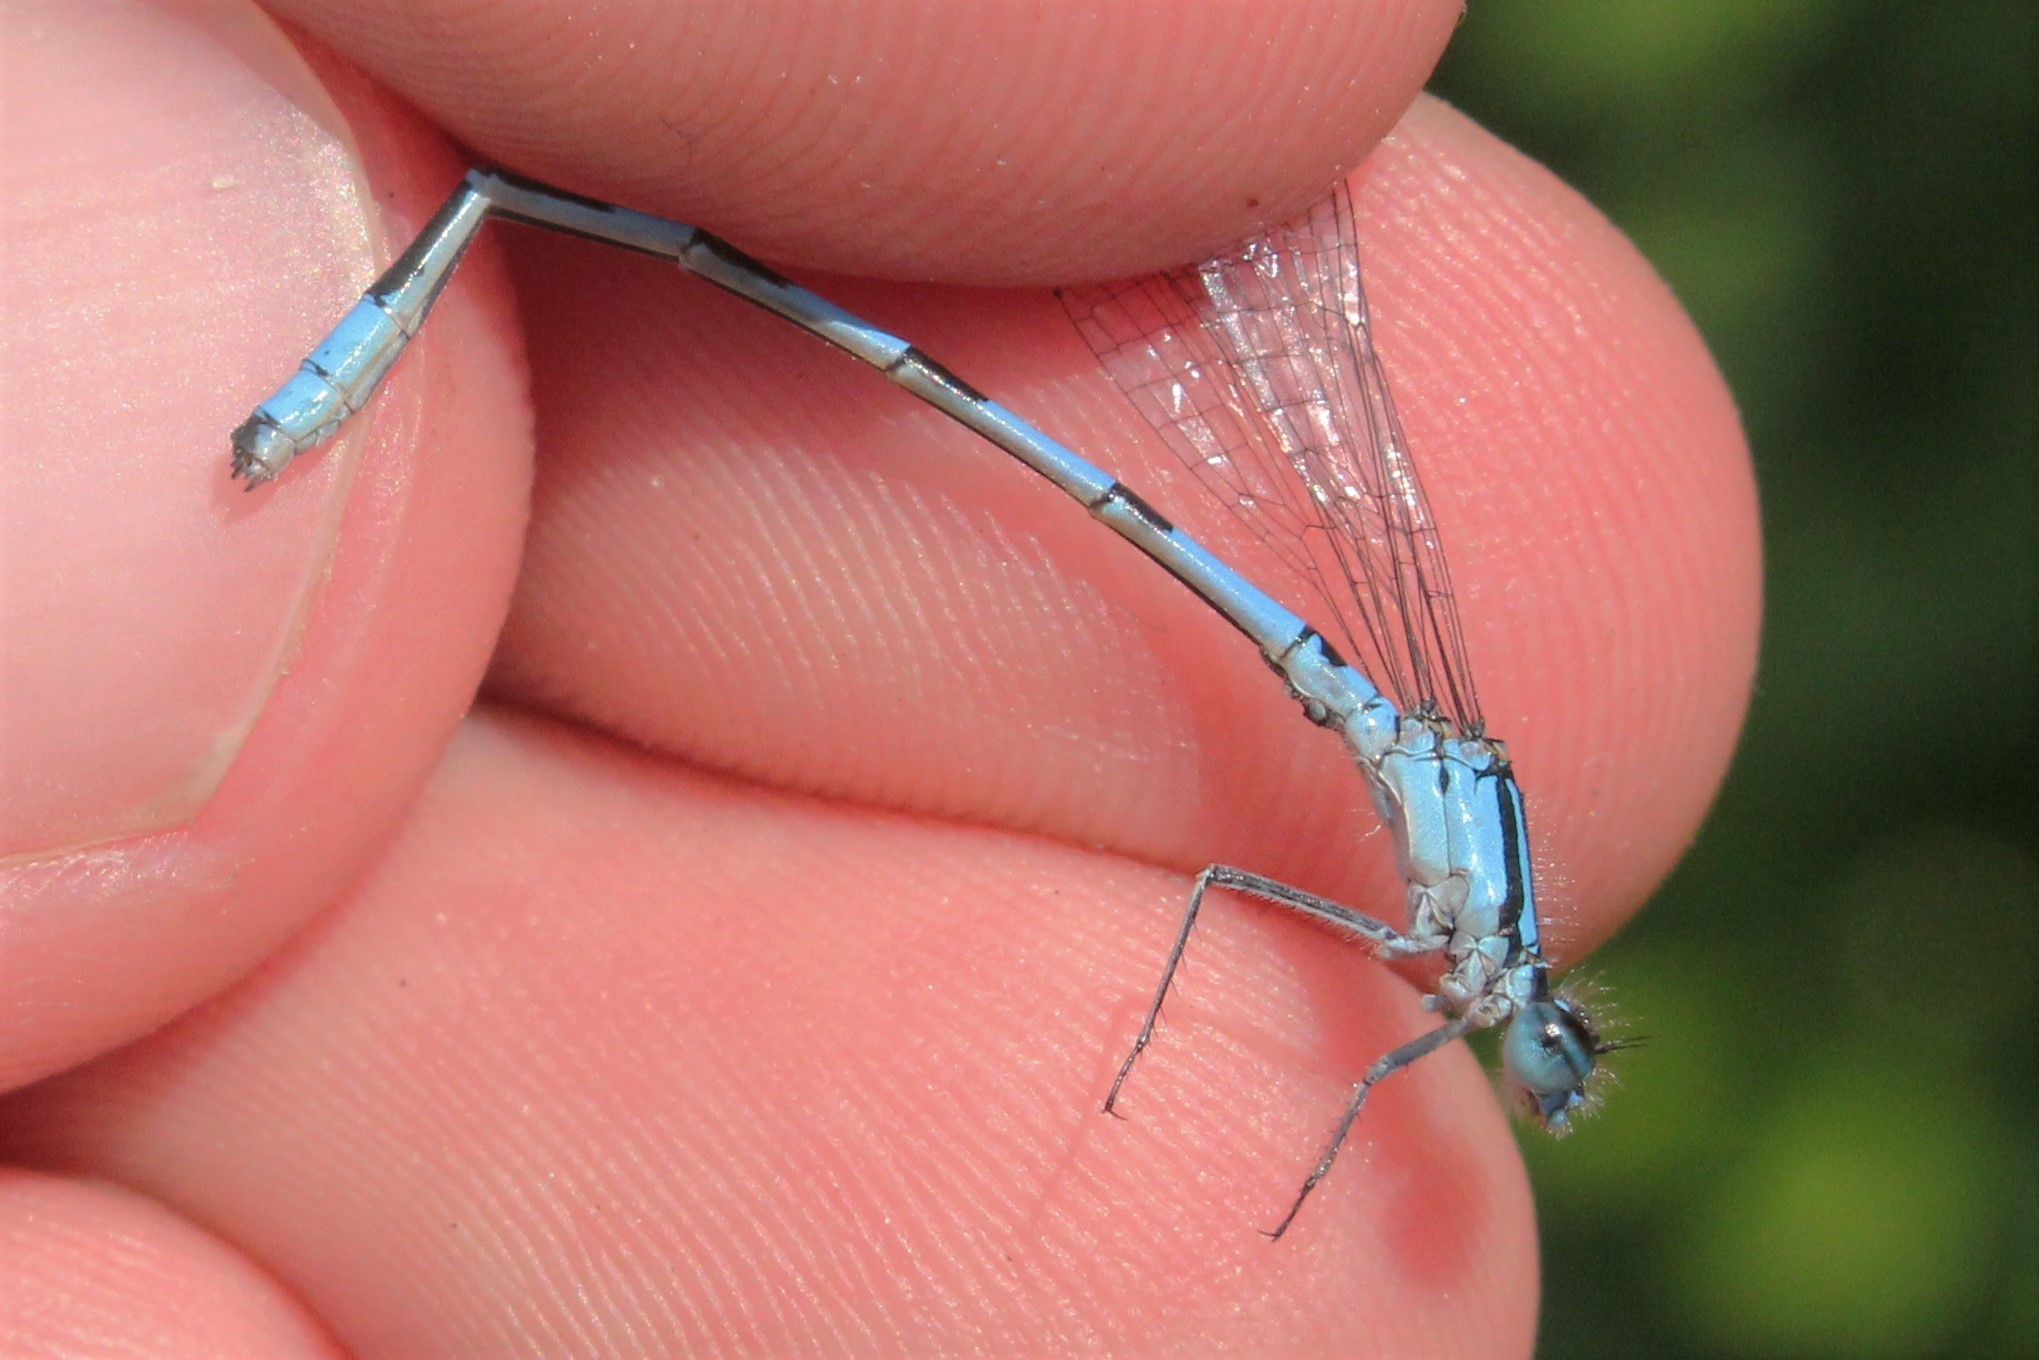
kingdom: Animalia
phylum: Arthropoda
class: Insecta
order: Odonata
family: Coenagrionidae
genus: Enallagma
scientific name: Enallagma hageni
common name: Hagen's bluet
